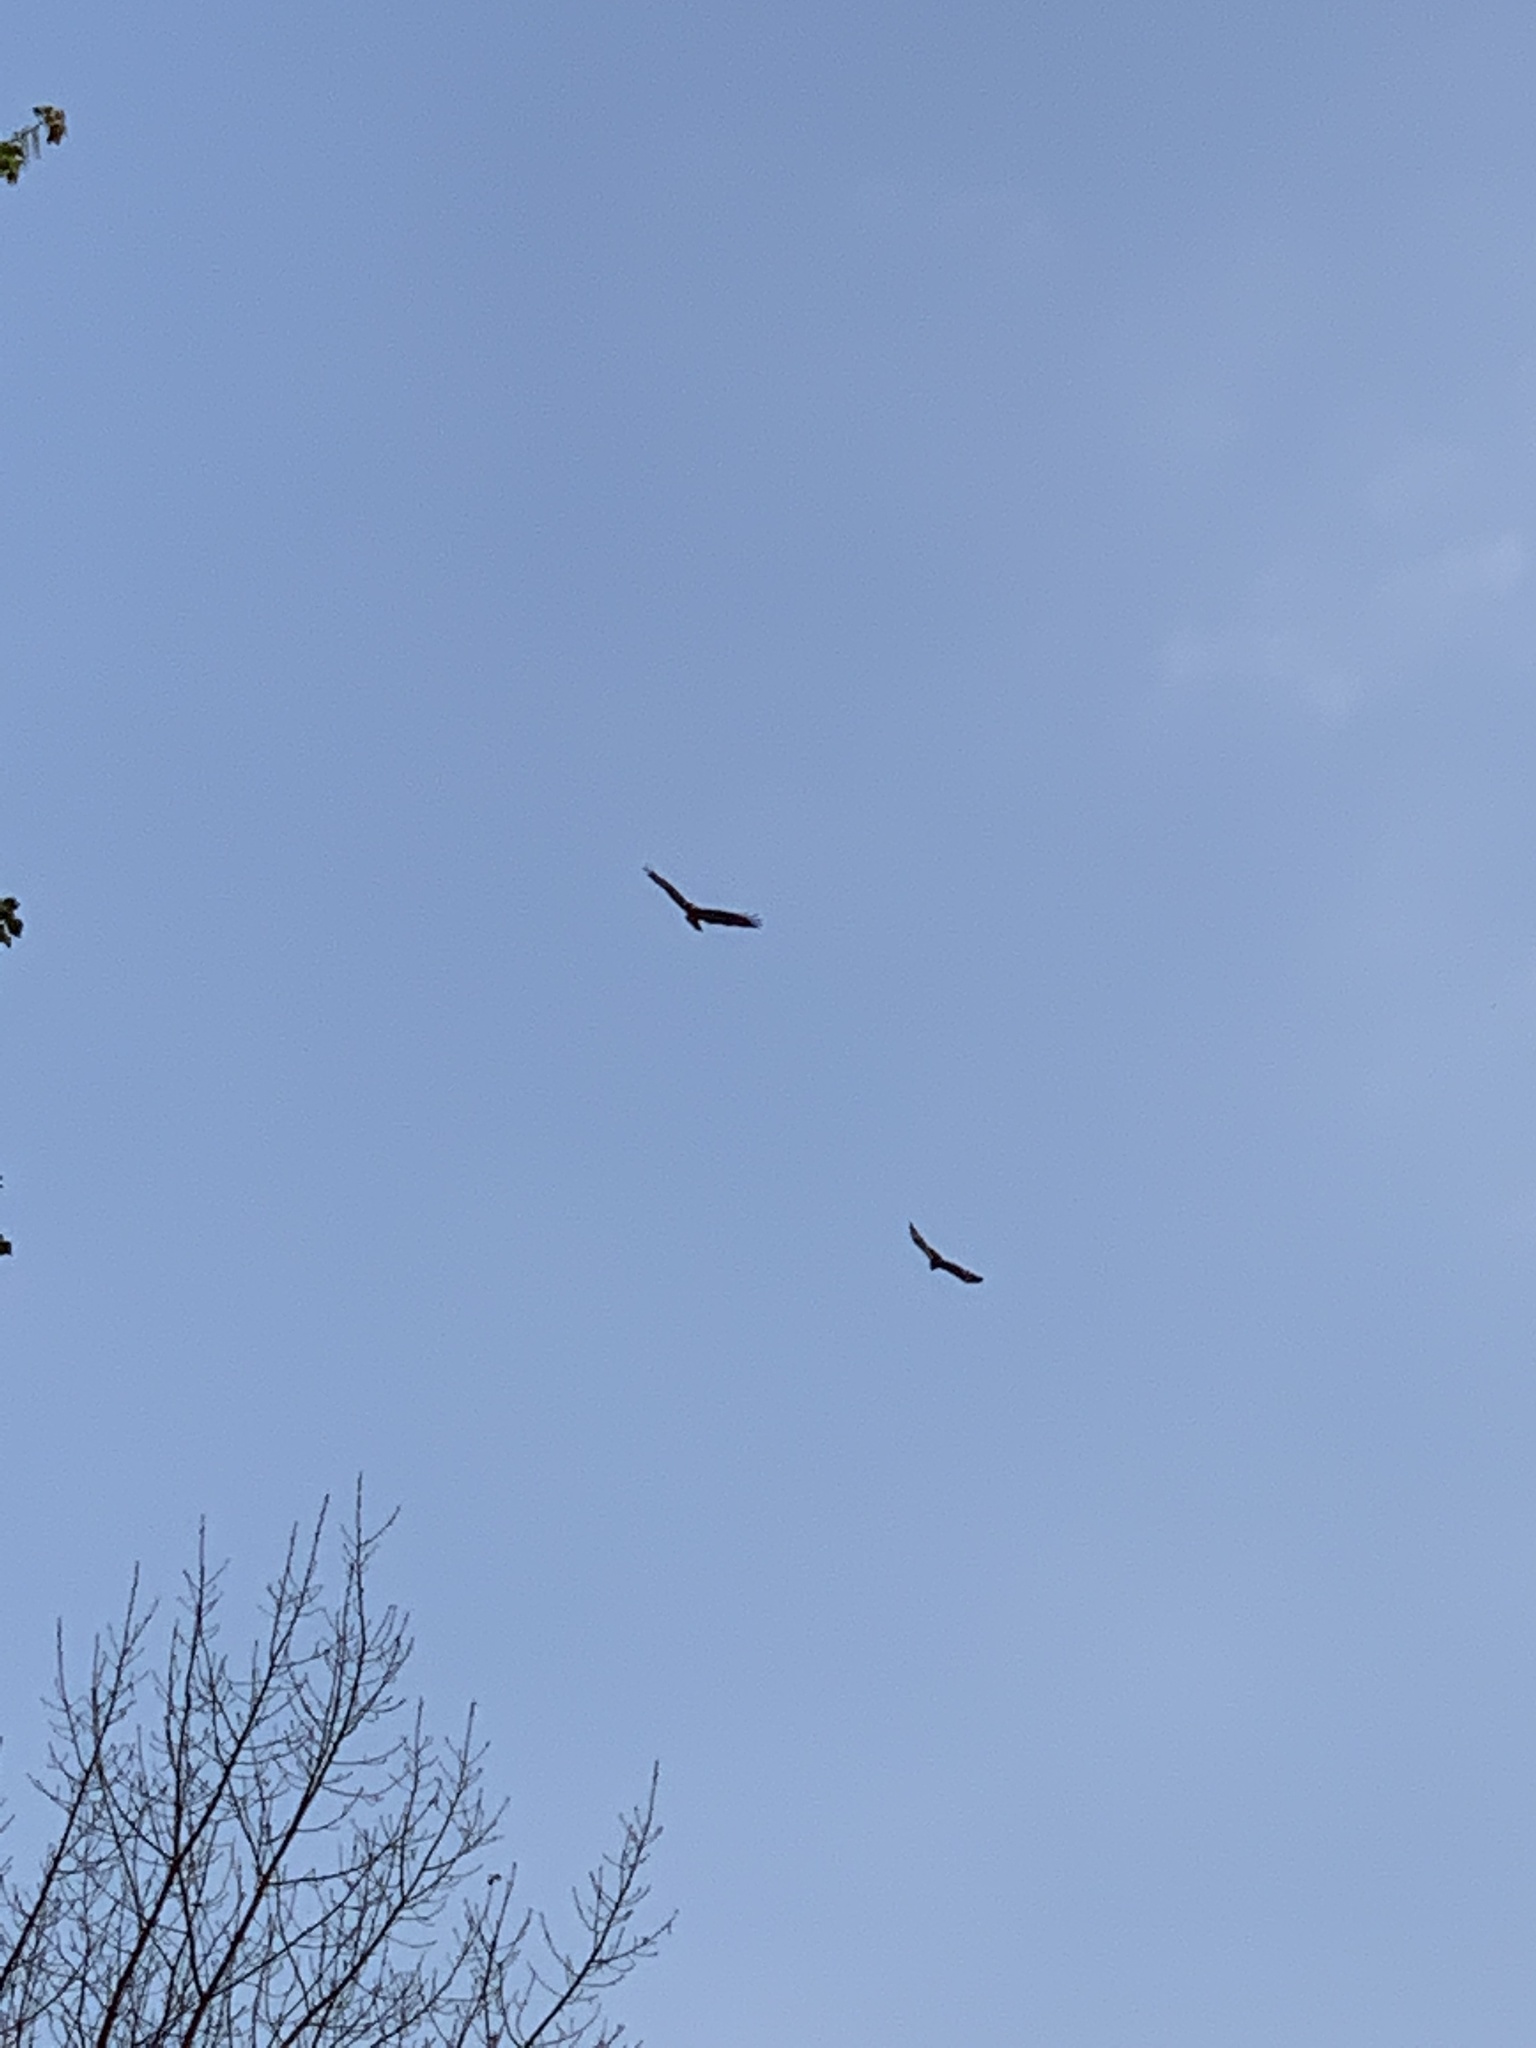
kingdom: Animalia
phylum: Chordata
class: Aves
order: Accipitriformes
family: Accipitridae
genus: Buteo
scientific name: Buteo buteo
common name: Common buzzard
